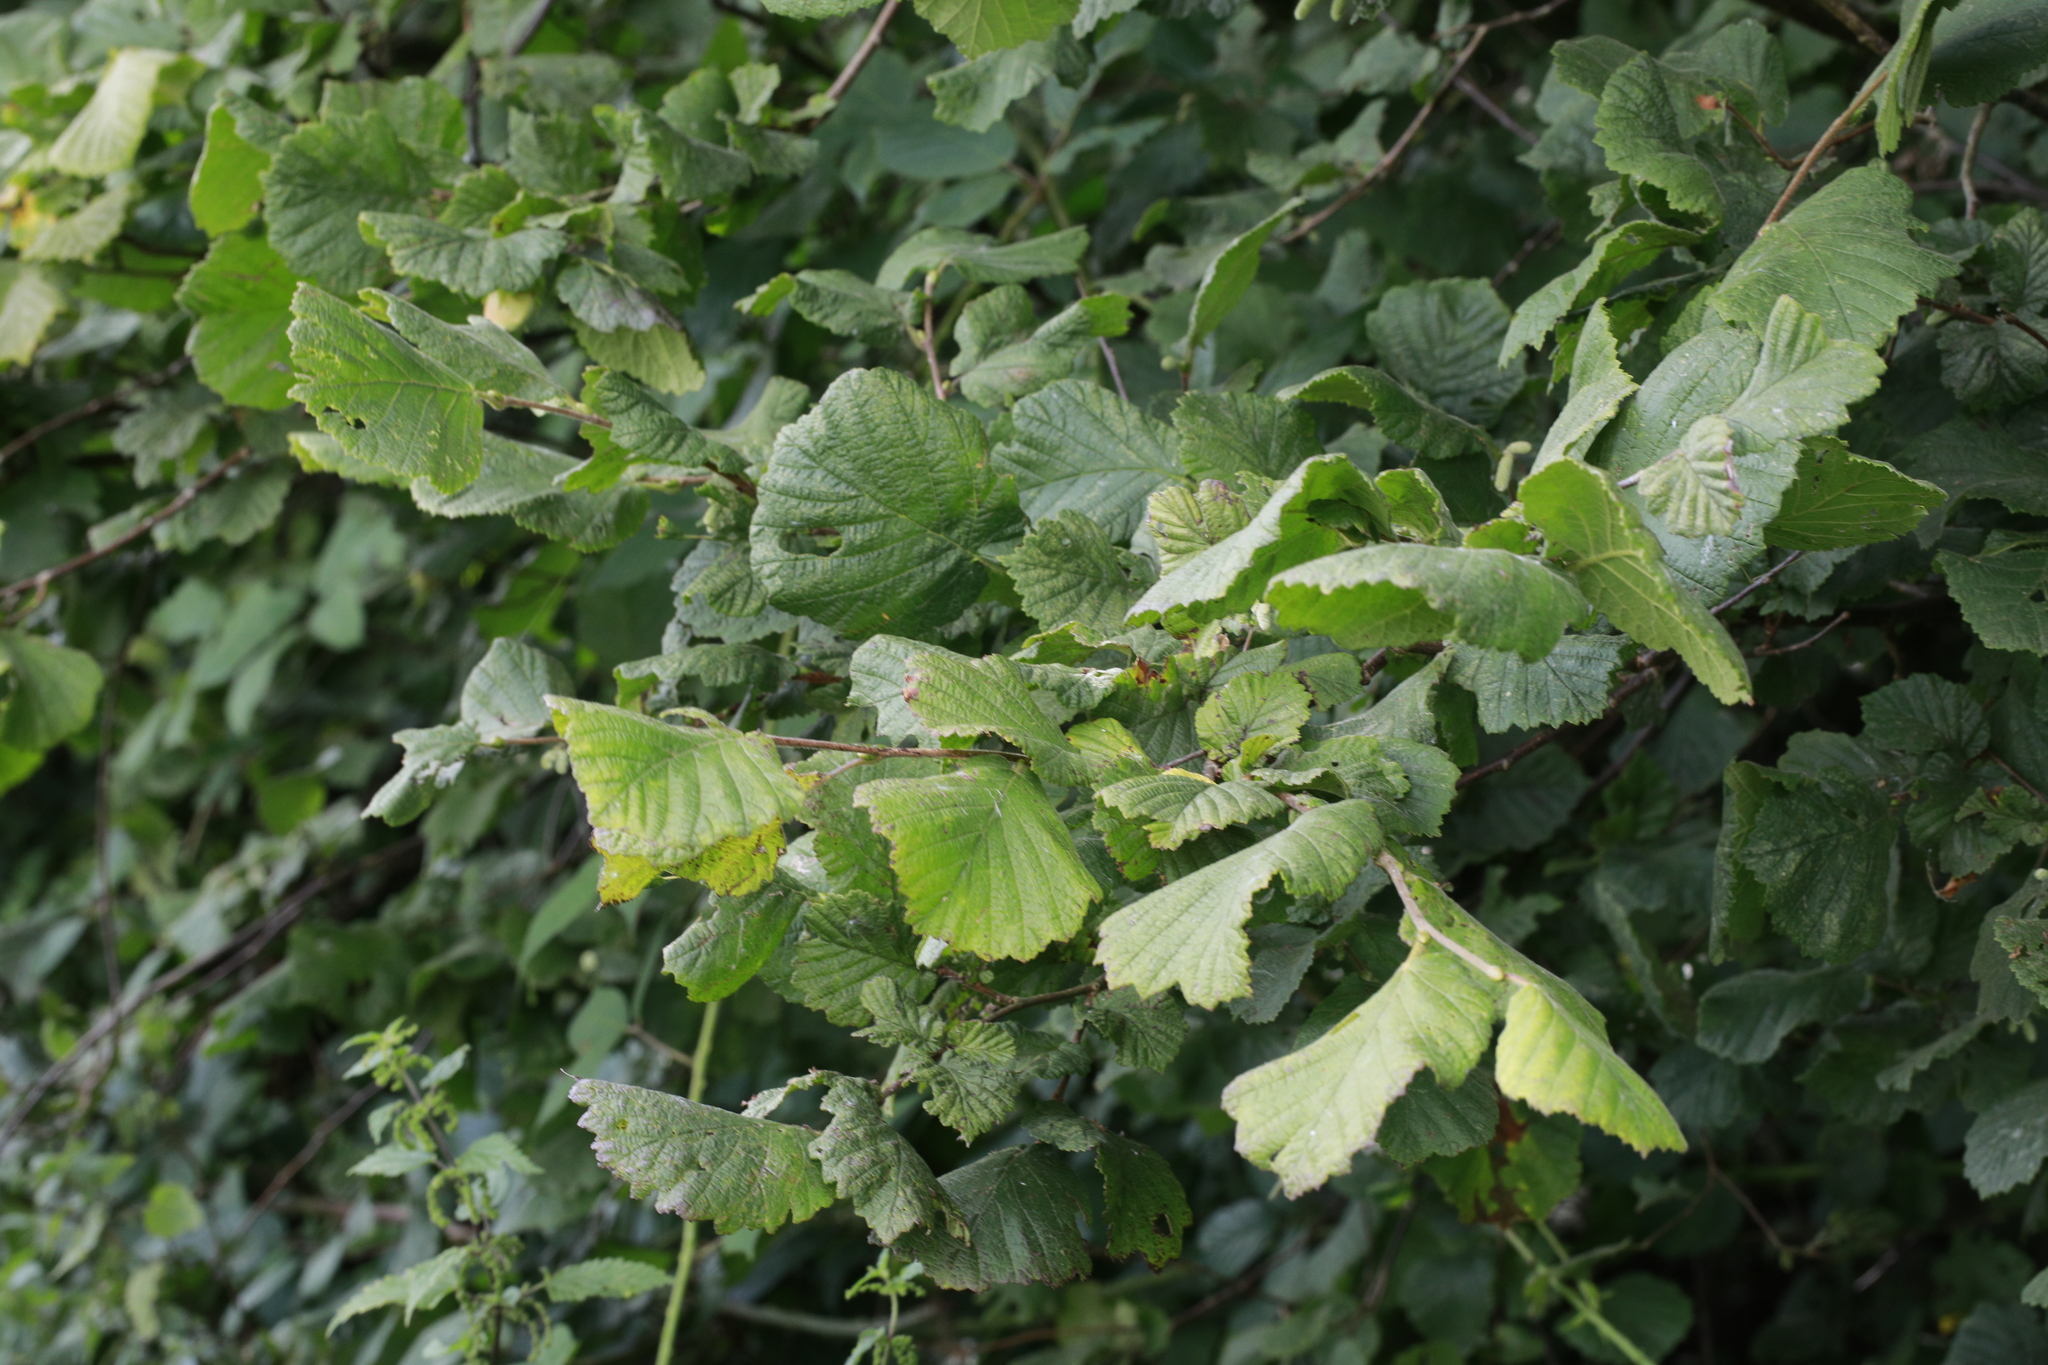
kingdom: Plantae
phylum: Tracheophyta
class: Magnoliopsida
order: Fagales
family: Betulaceae
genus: Corylus
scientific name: Corylus avellana
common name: European hazel
